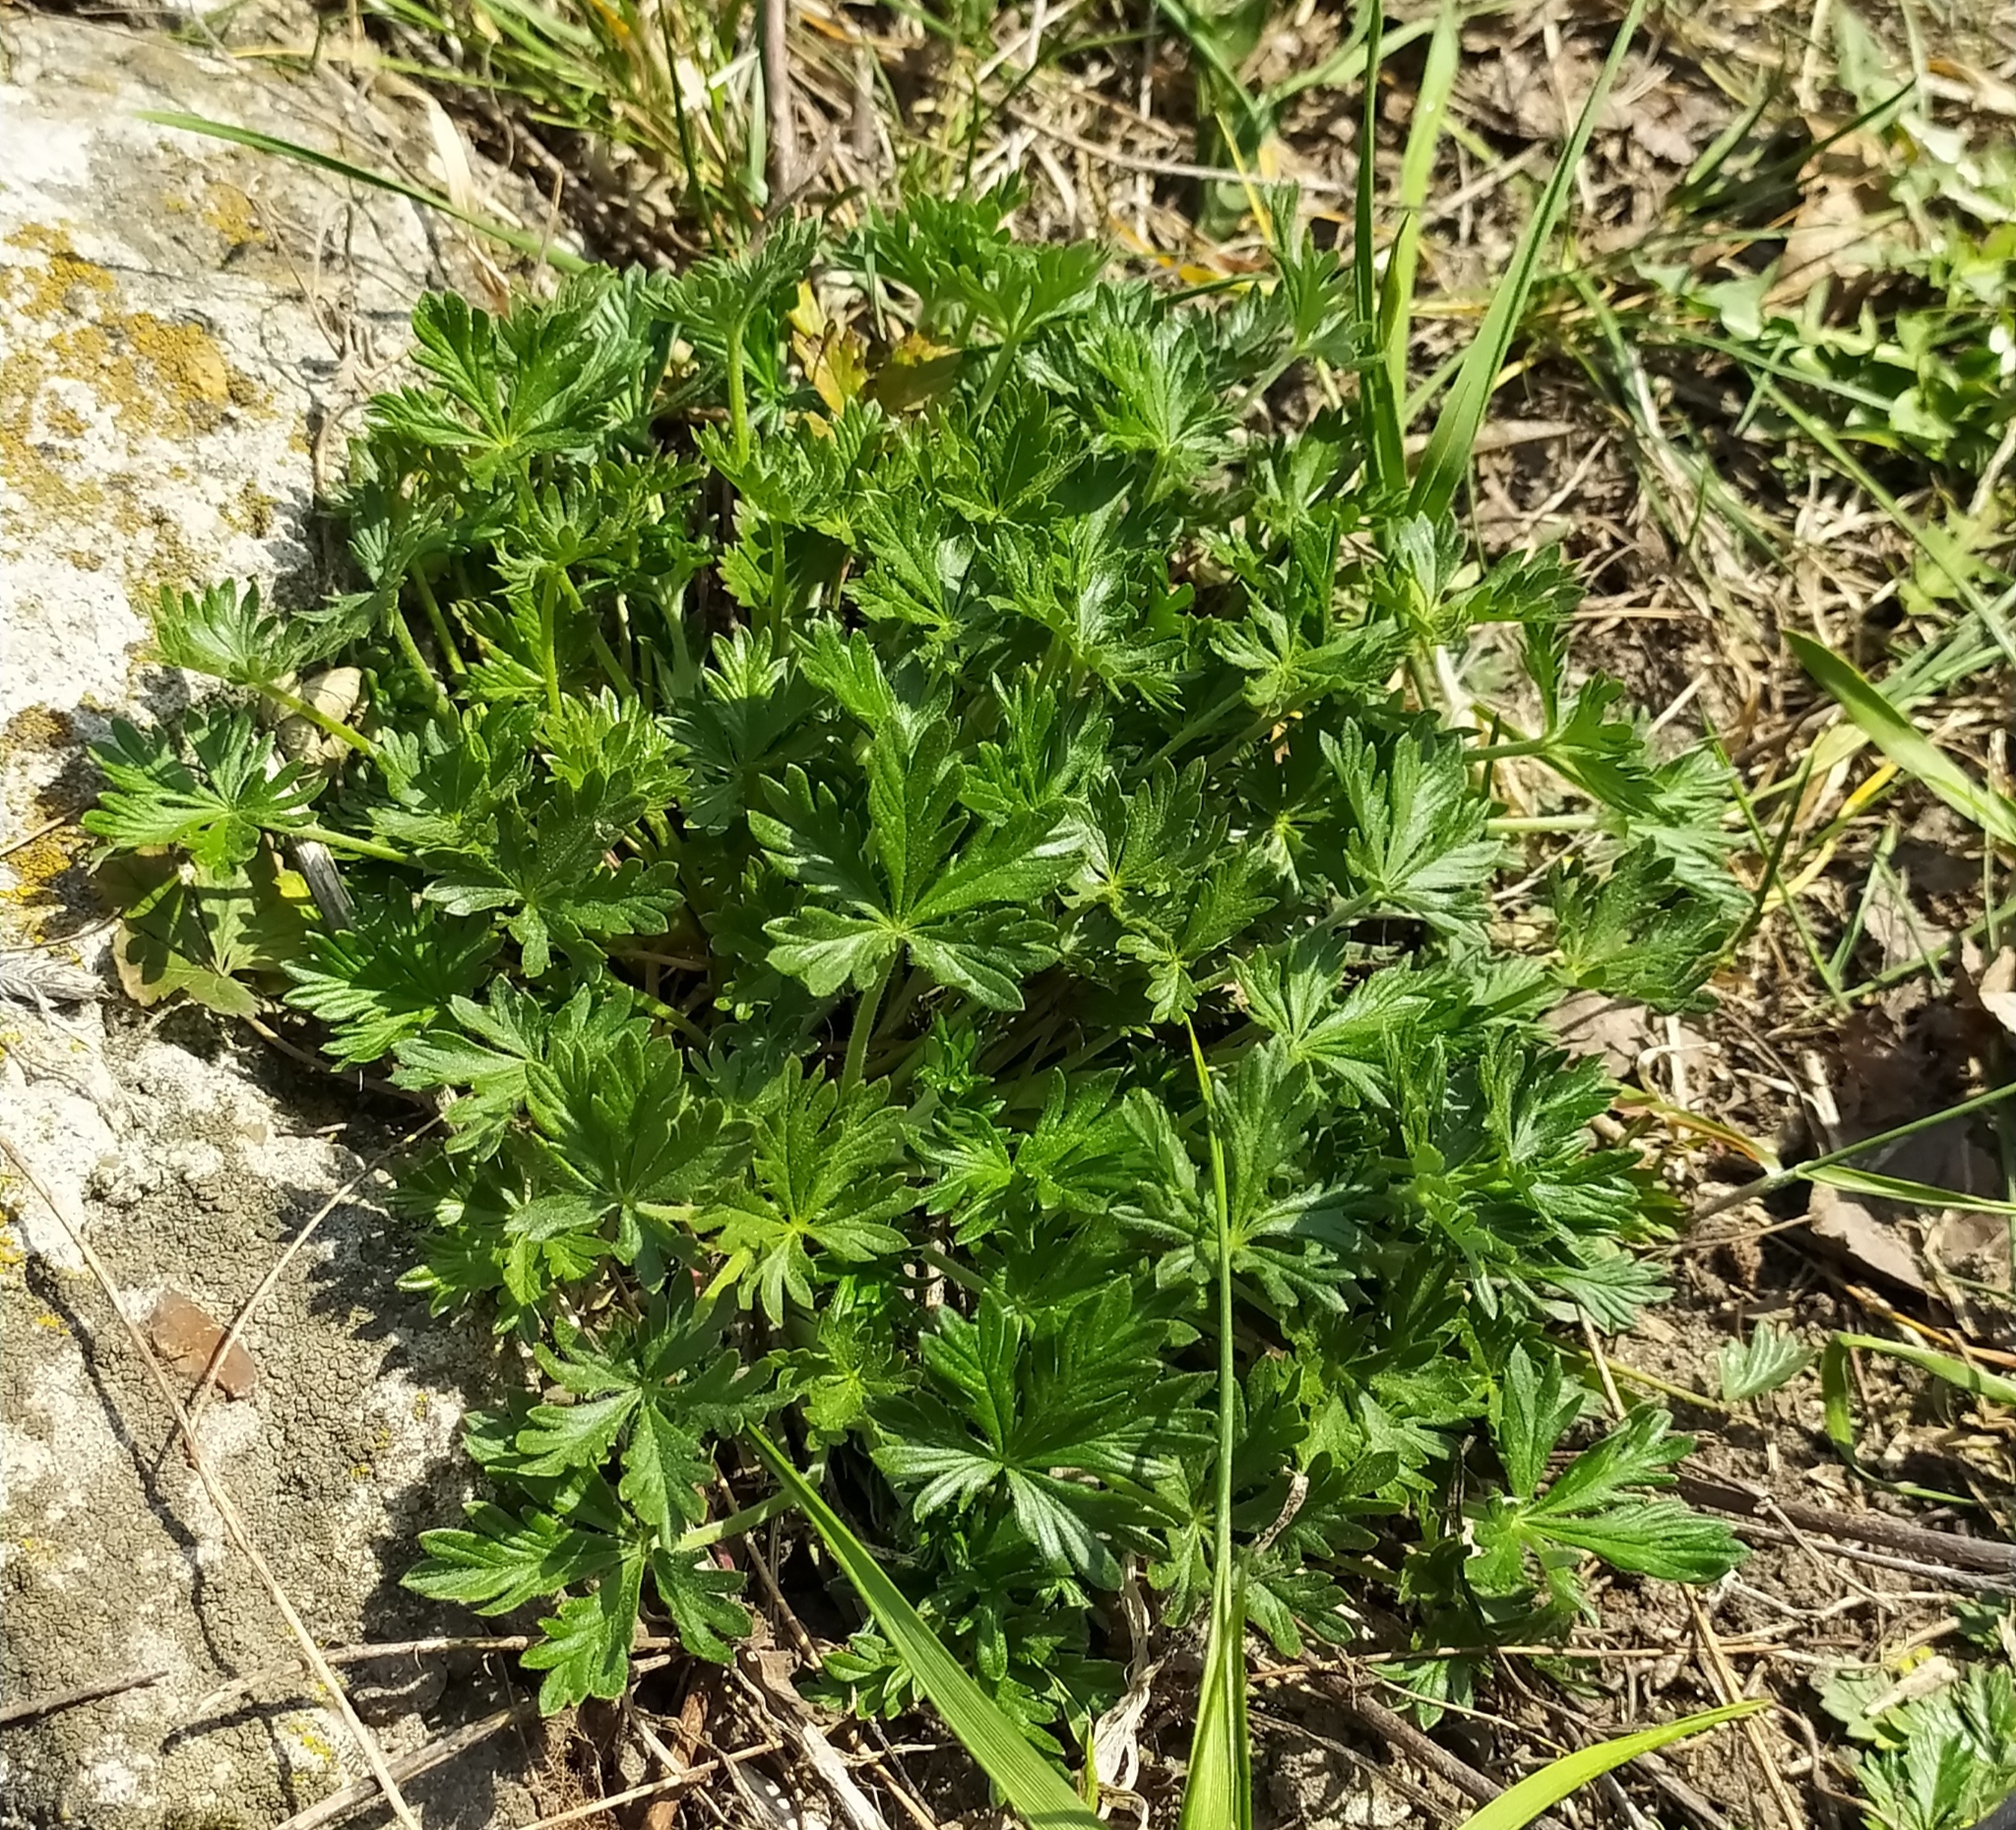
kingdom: Plantae
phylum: Tracheophyta
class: Magnoliopsida
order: Rosales
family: Rosaceae
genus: Potentilla
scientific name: Potentilla argentea
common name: Hoary cinquefoil
